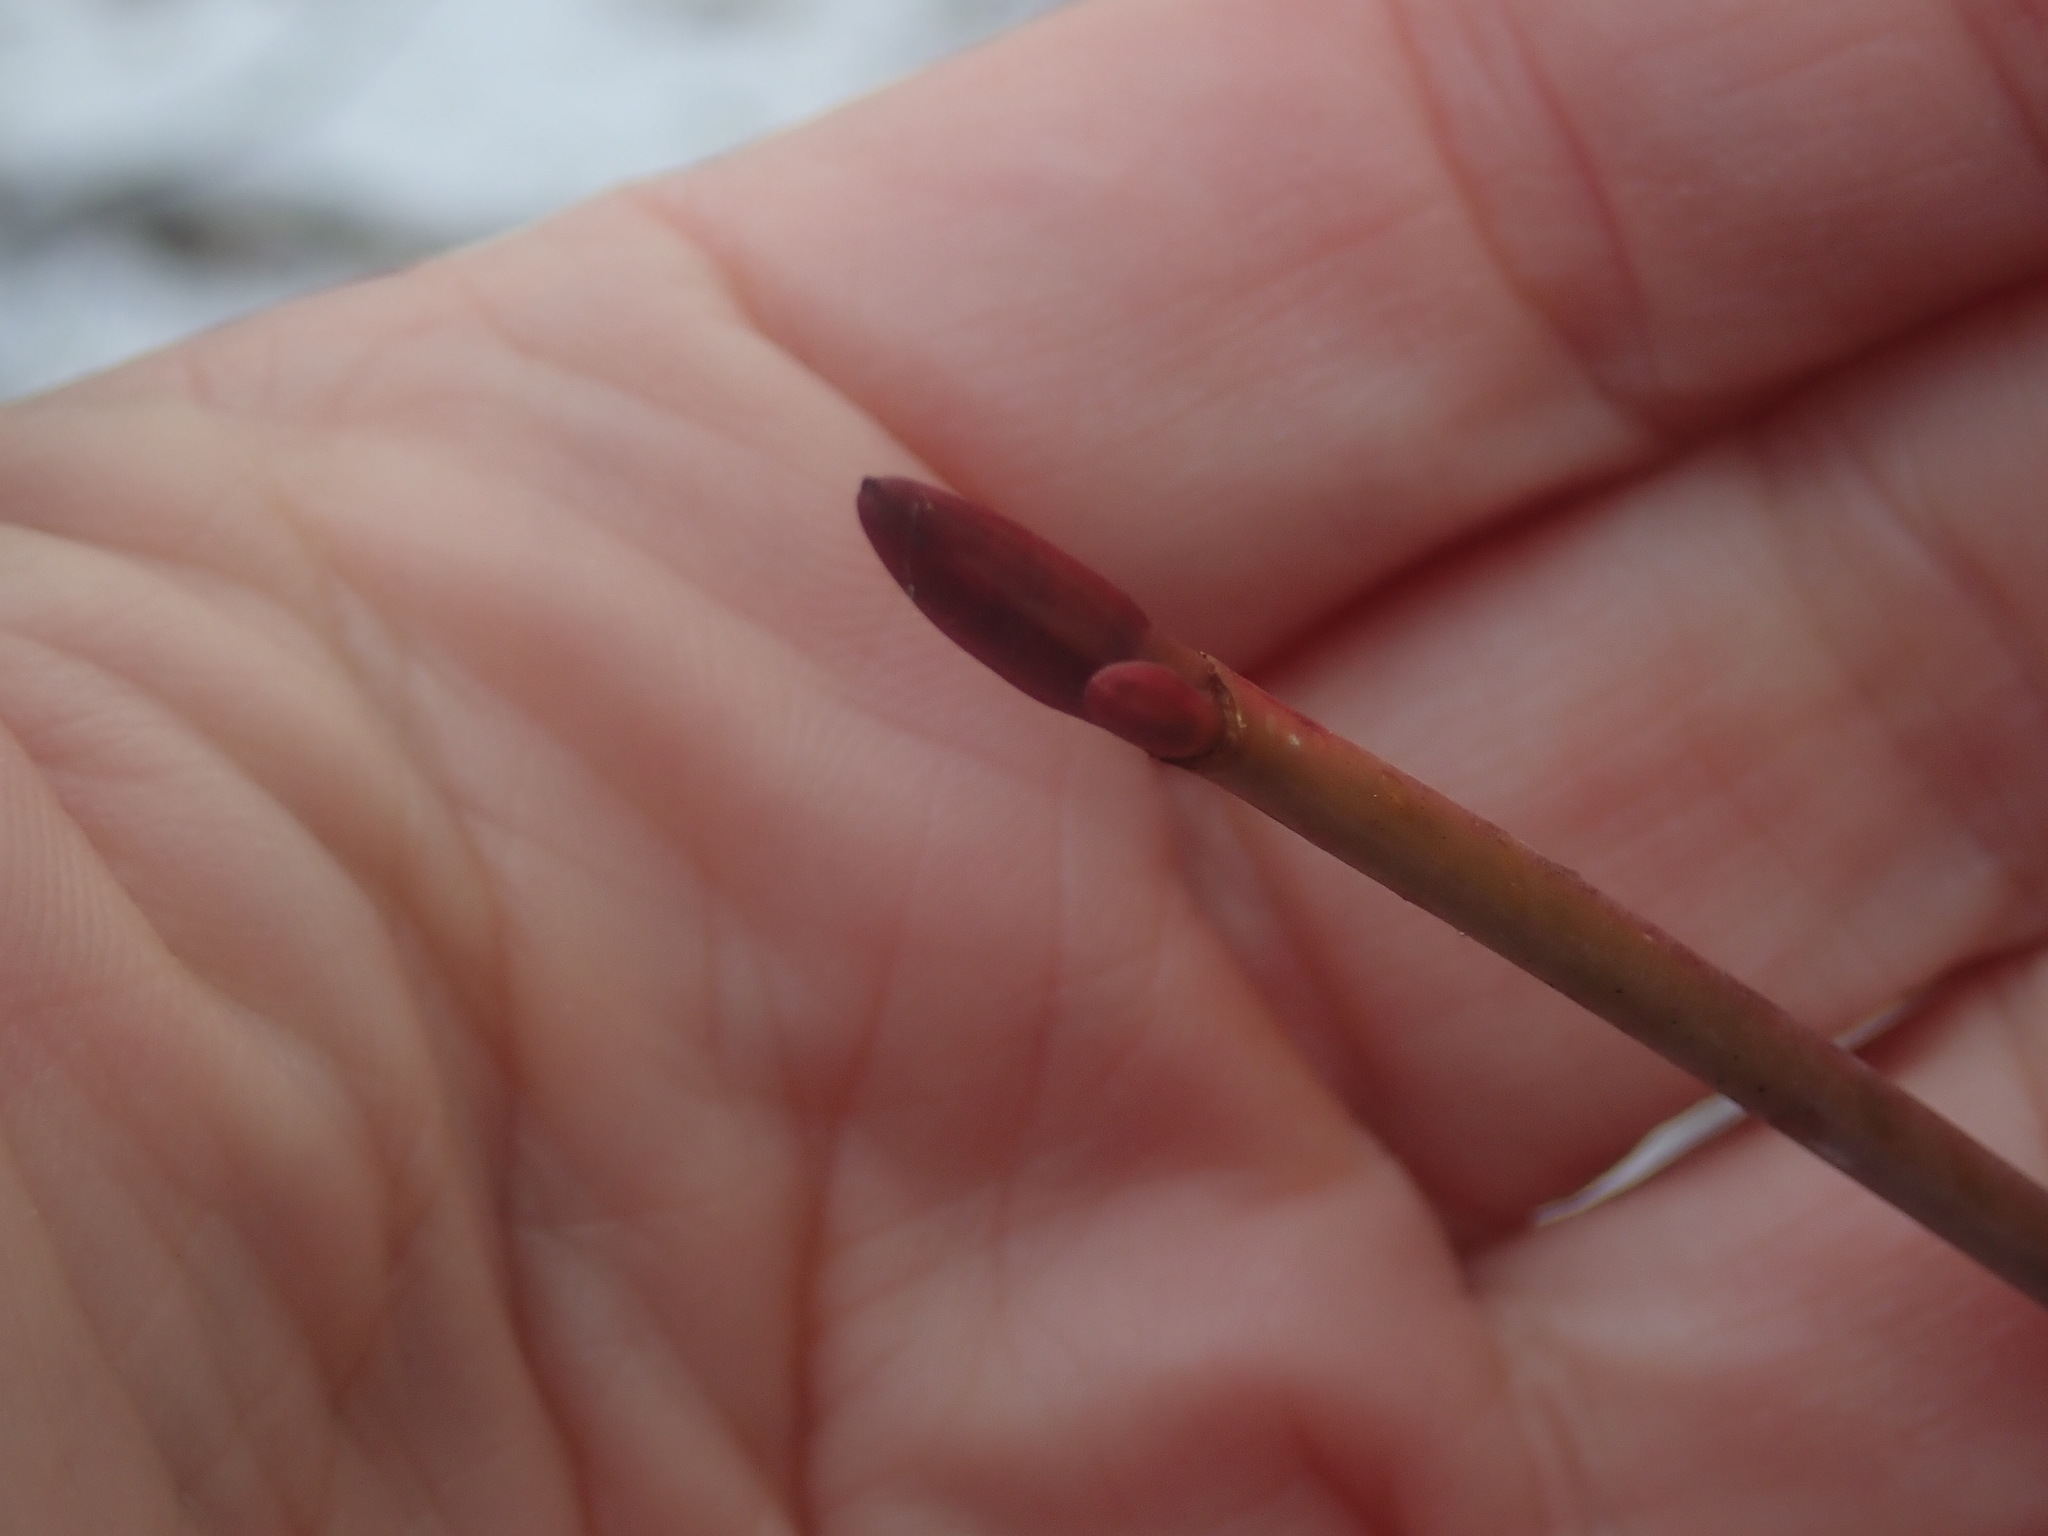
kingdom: Plantae
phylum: Tracheophyta
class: Magnoliopsida
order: Sapindales
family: Sapindaceae
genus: Acer
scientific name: Acer pensylvanicum
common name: Moosewood
